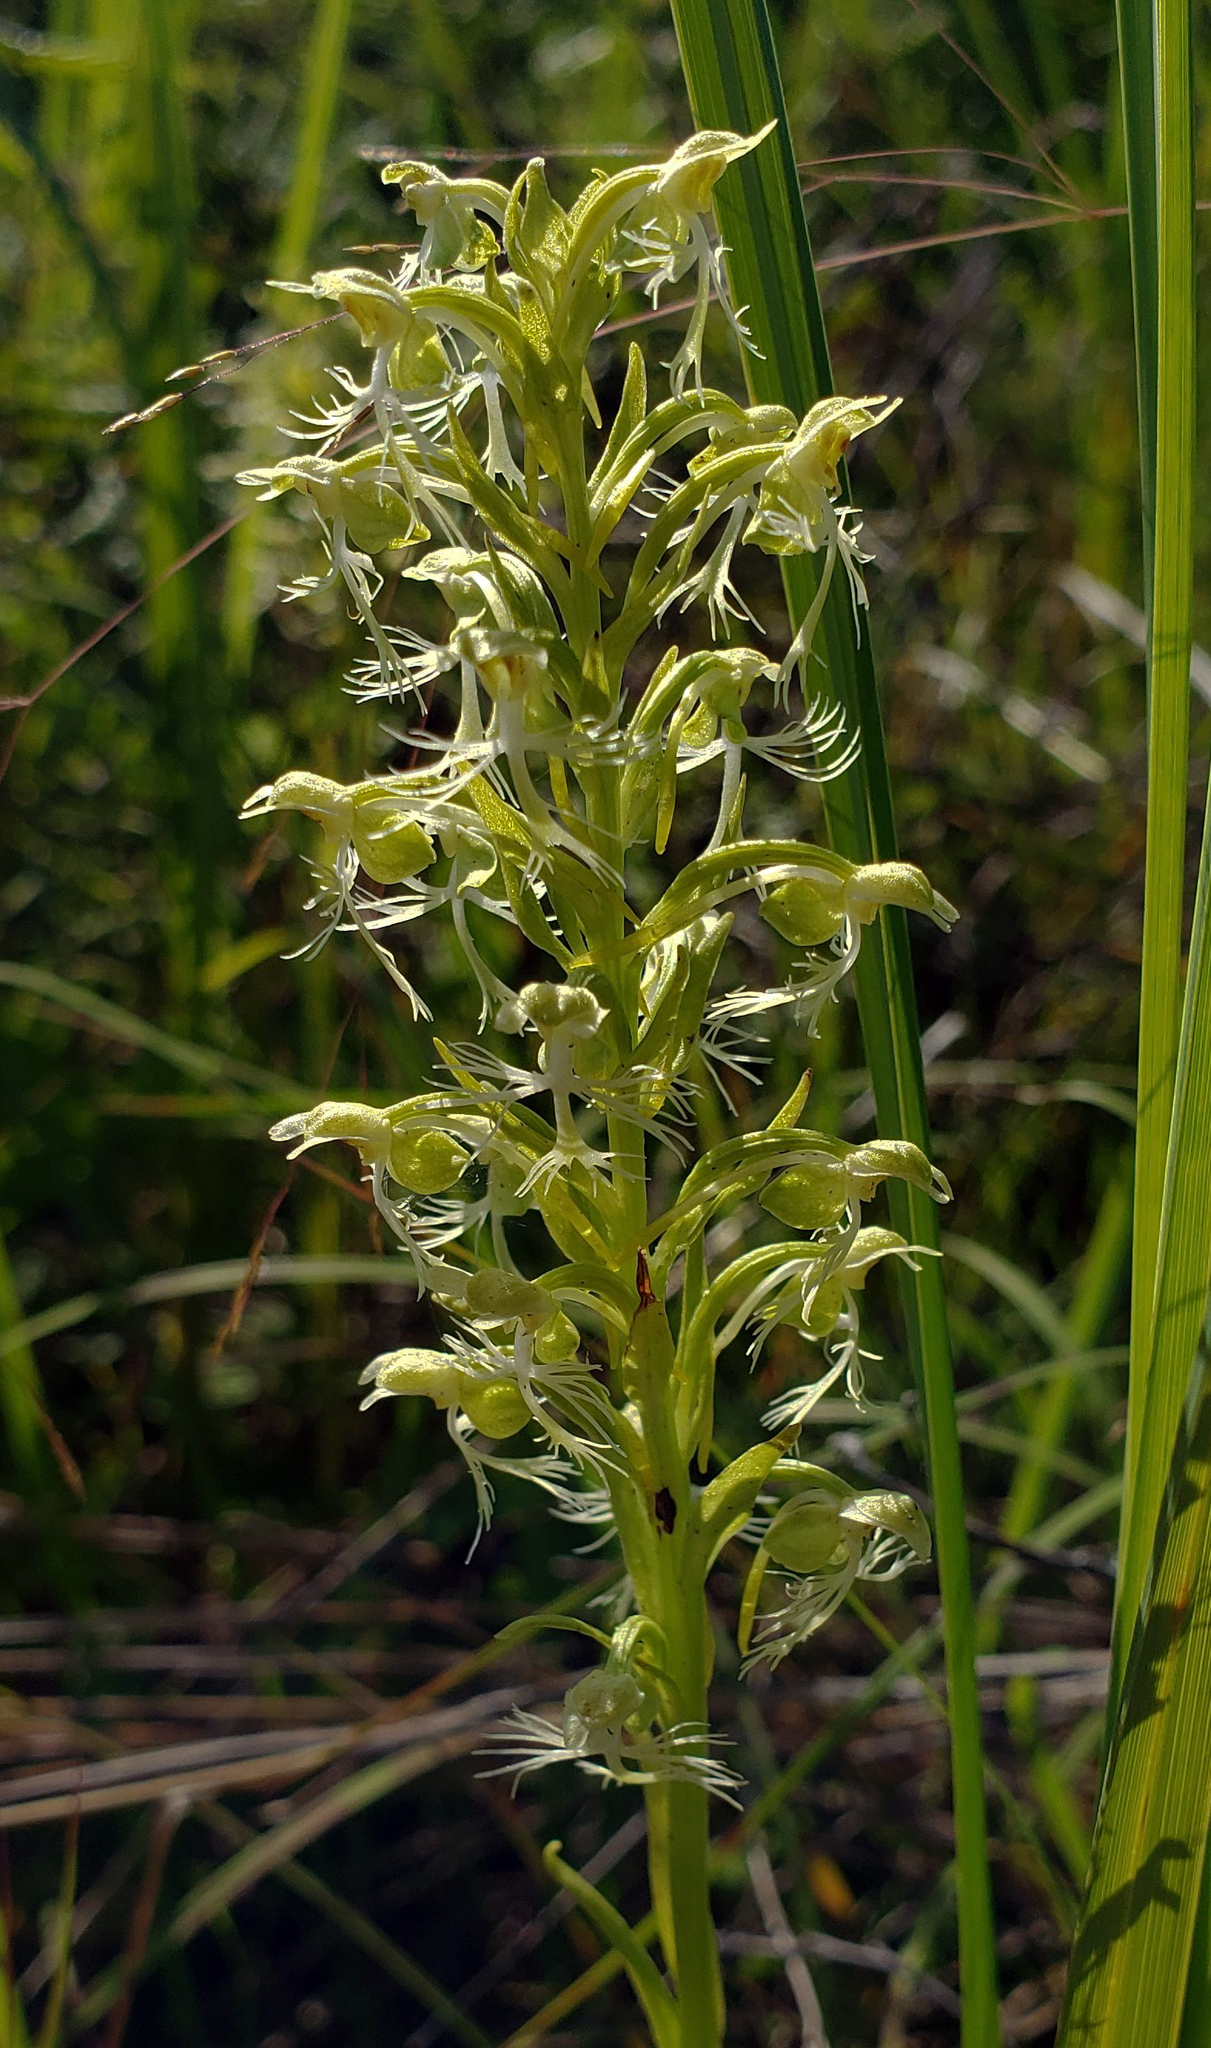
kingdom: Plantae
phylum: Tracheophyta
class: Liliopsida
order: Asparagales
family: Orchidaceae
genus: Platanthera
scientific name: Platanthera lacera
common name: Green fringed orchid
